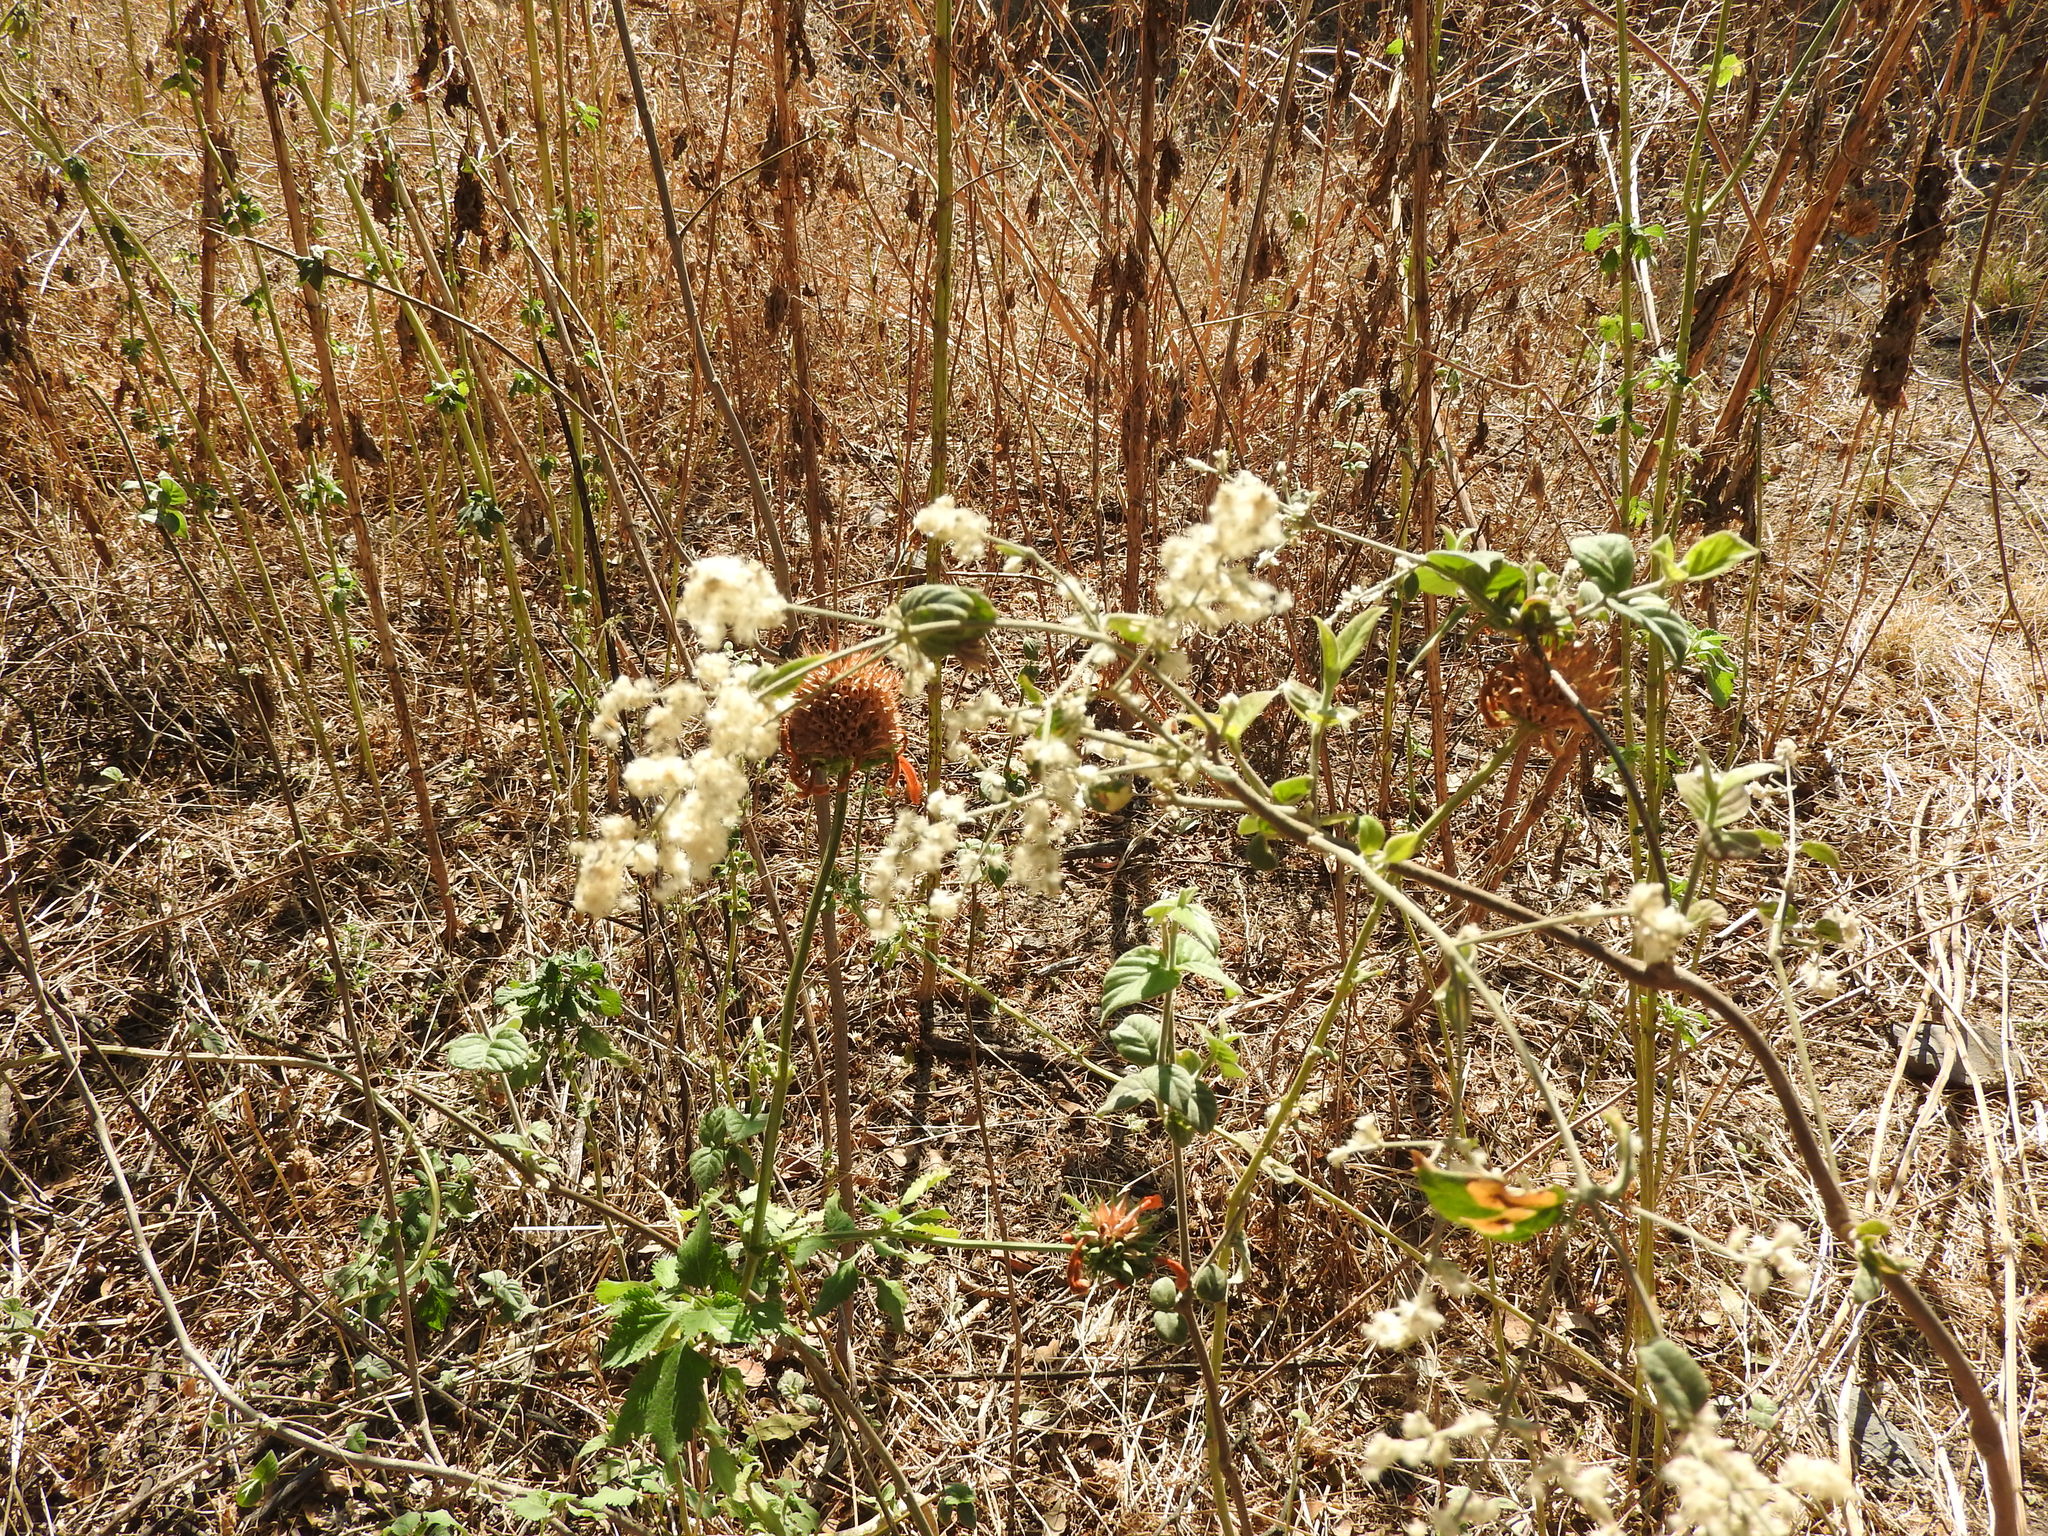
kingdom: Plantae
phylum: Tracheophyta
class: Magnoliopsida
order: Lamiales
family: Lamiaceae
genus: Leonotis
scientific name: Leonotis nepetifolia
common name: Christmas candlestick
